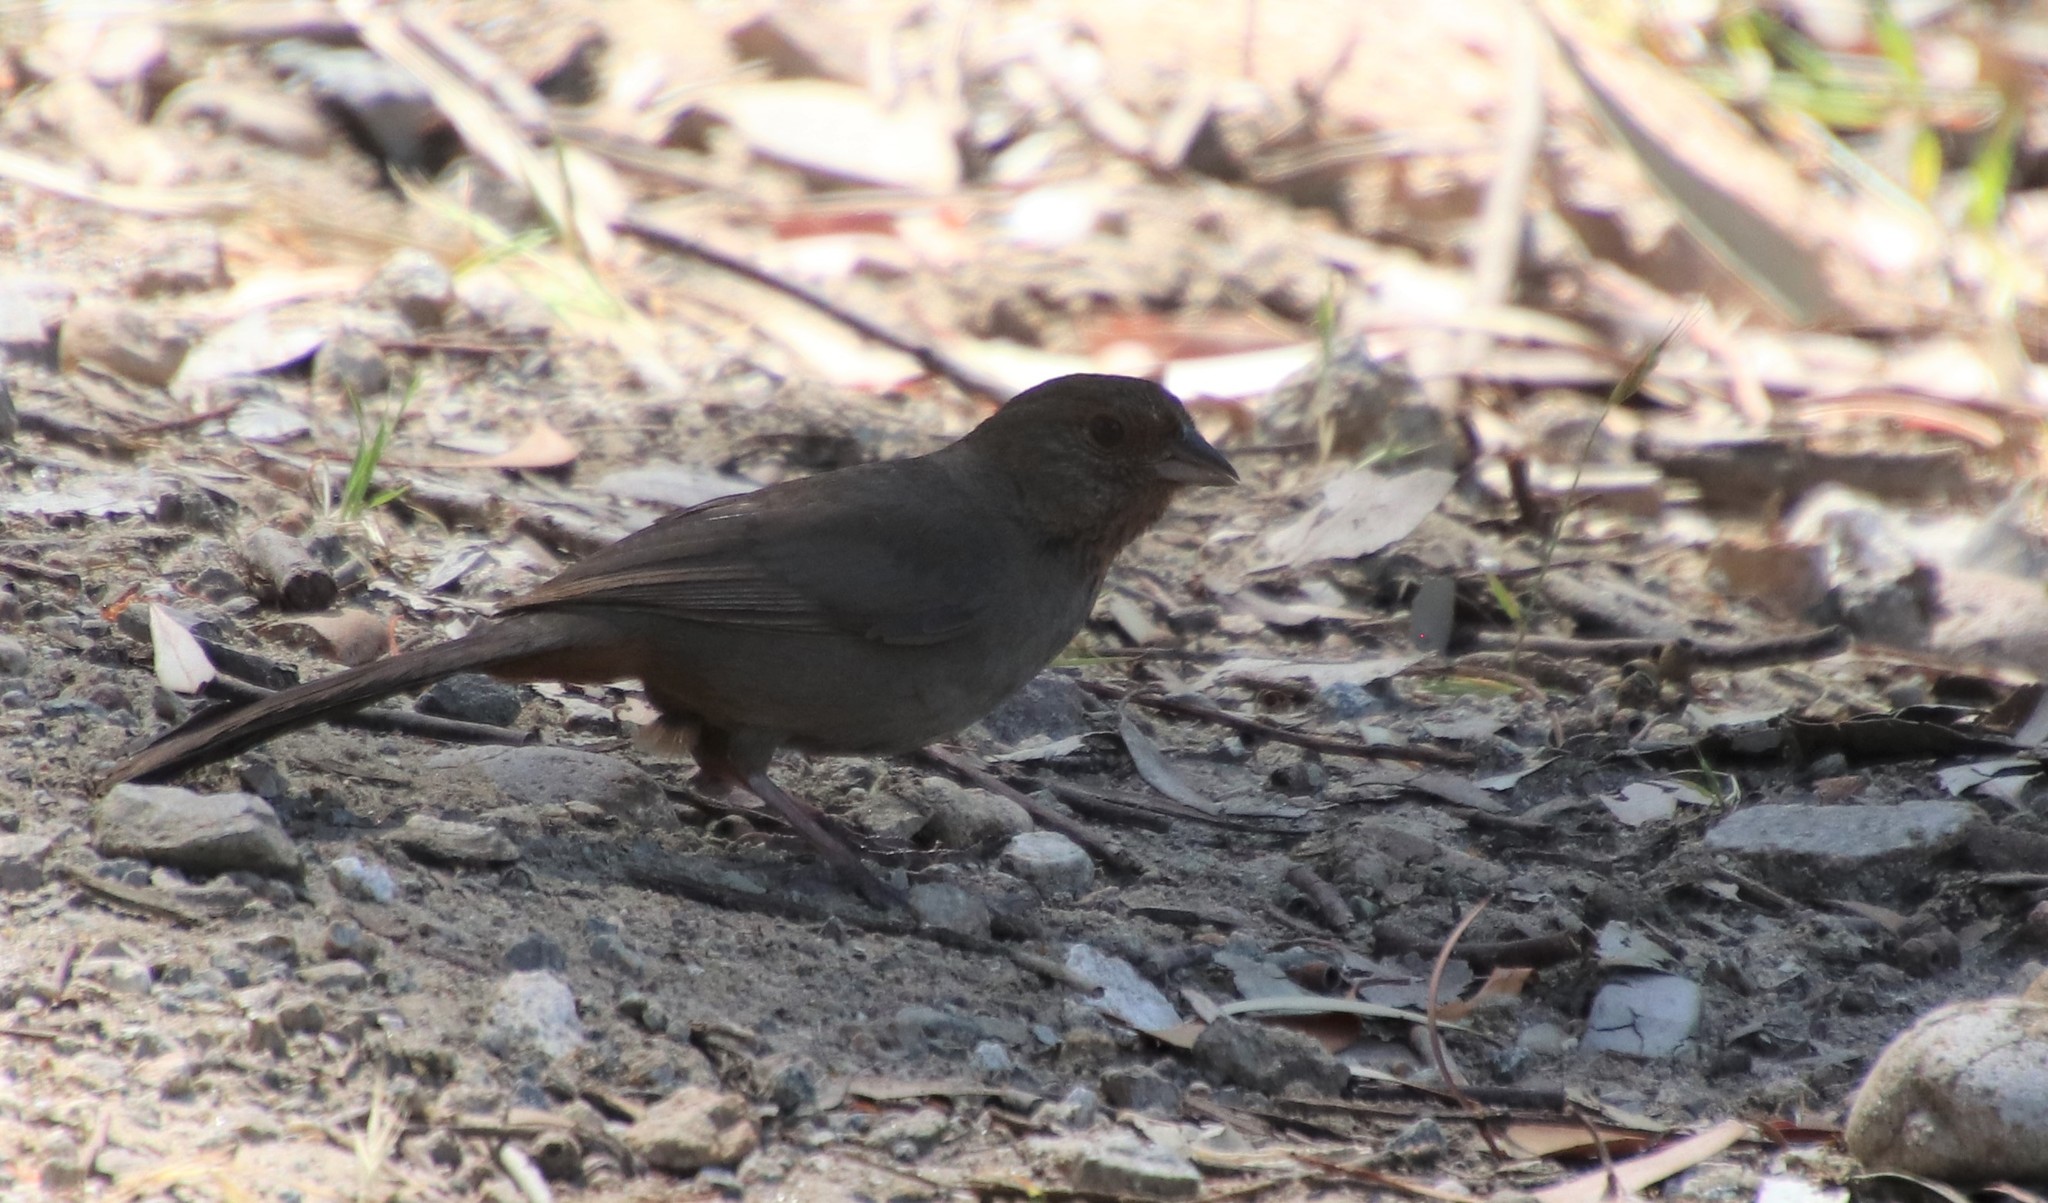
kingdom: Animalia
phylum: Chordata
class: Aves
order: Passeriformes
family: Passerellidae
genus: Melozone
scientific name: Melozone crissalis
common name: California towhee
